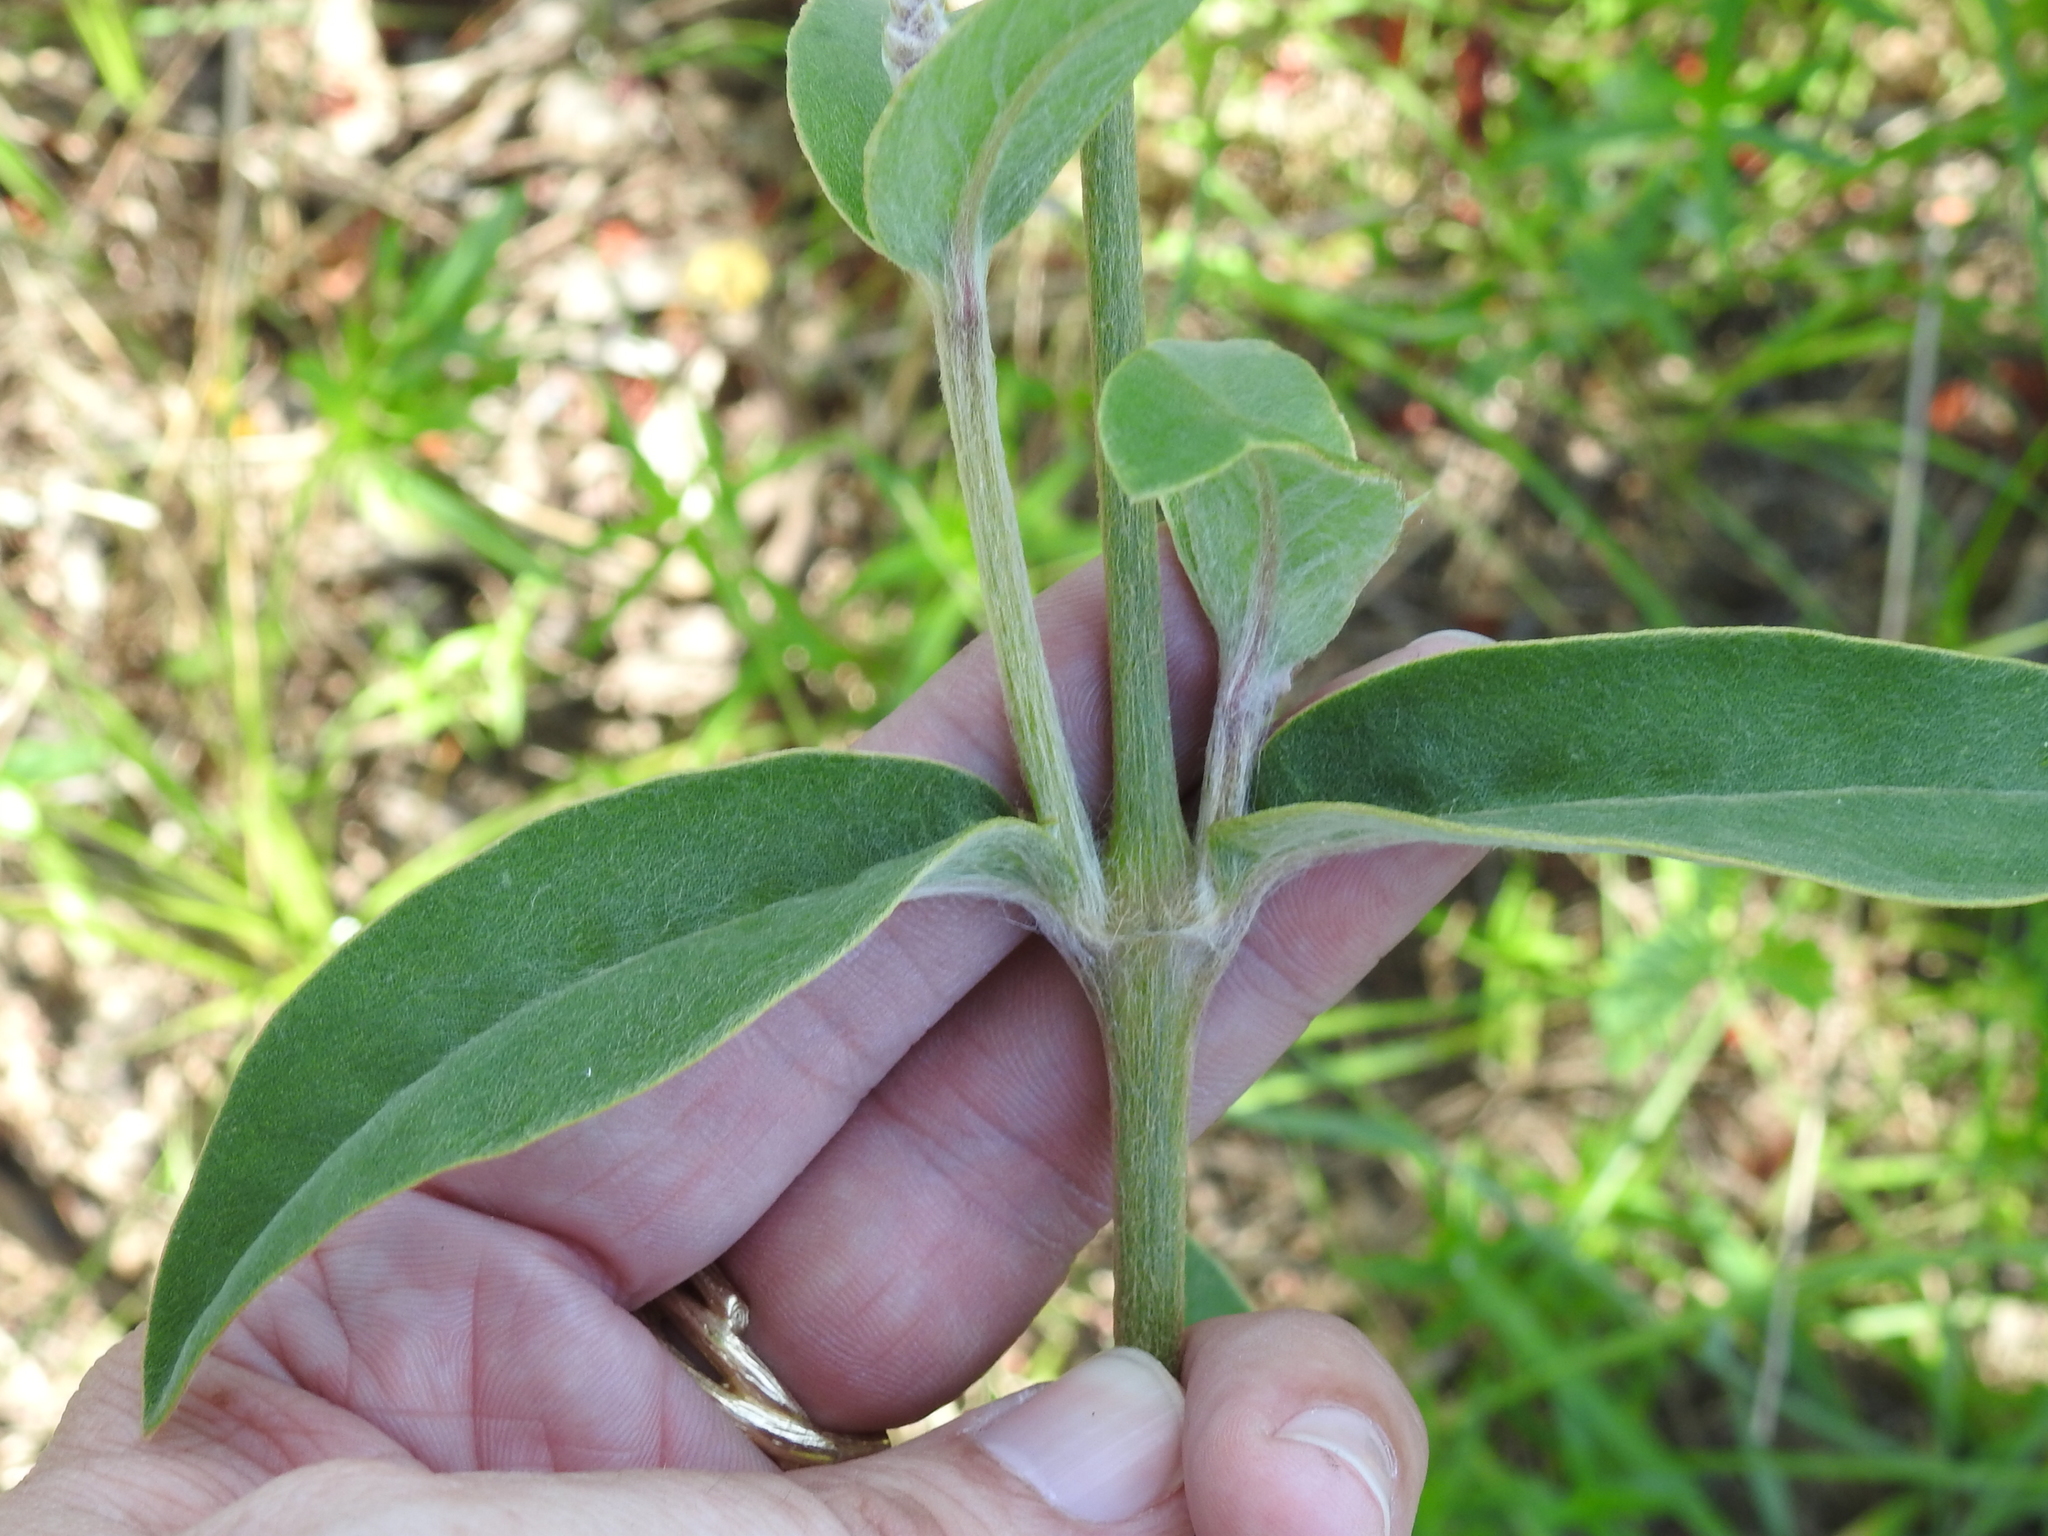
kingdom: Plantae
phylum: Tracheophyta
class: Magnoliopsida
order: Caryophyllales
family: Amaranthaceae
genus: Froelichia
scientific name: Froelichia floridana
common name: Florida snake-cotton
